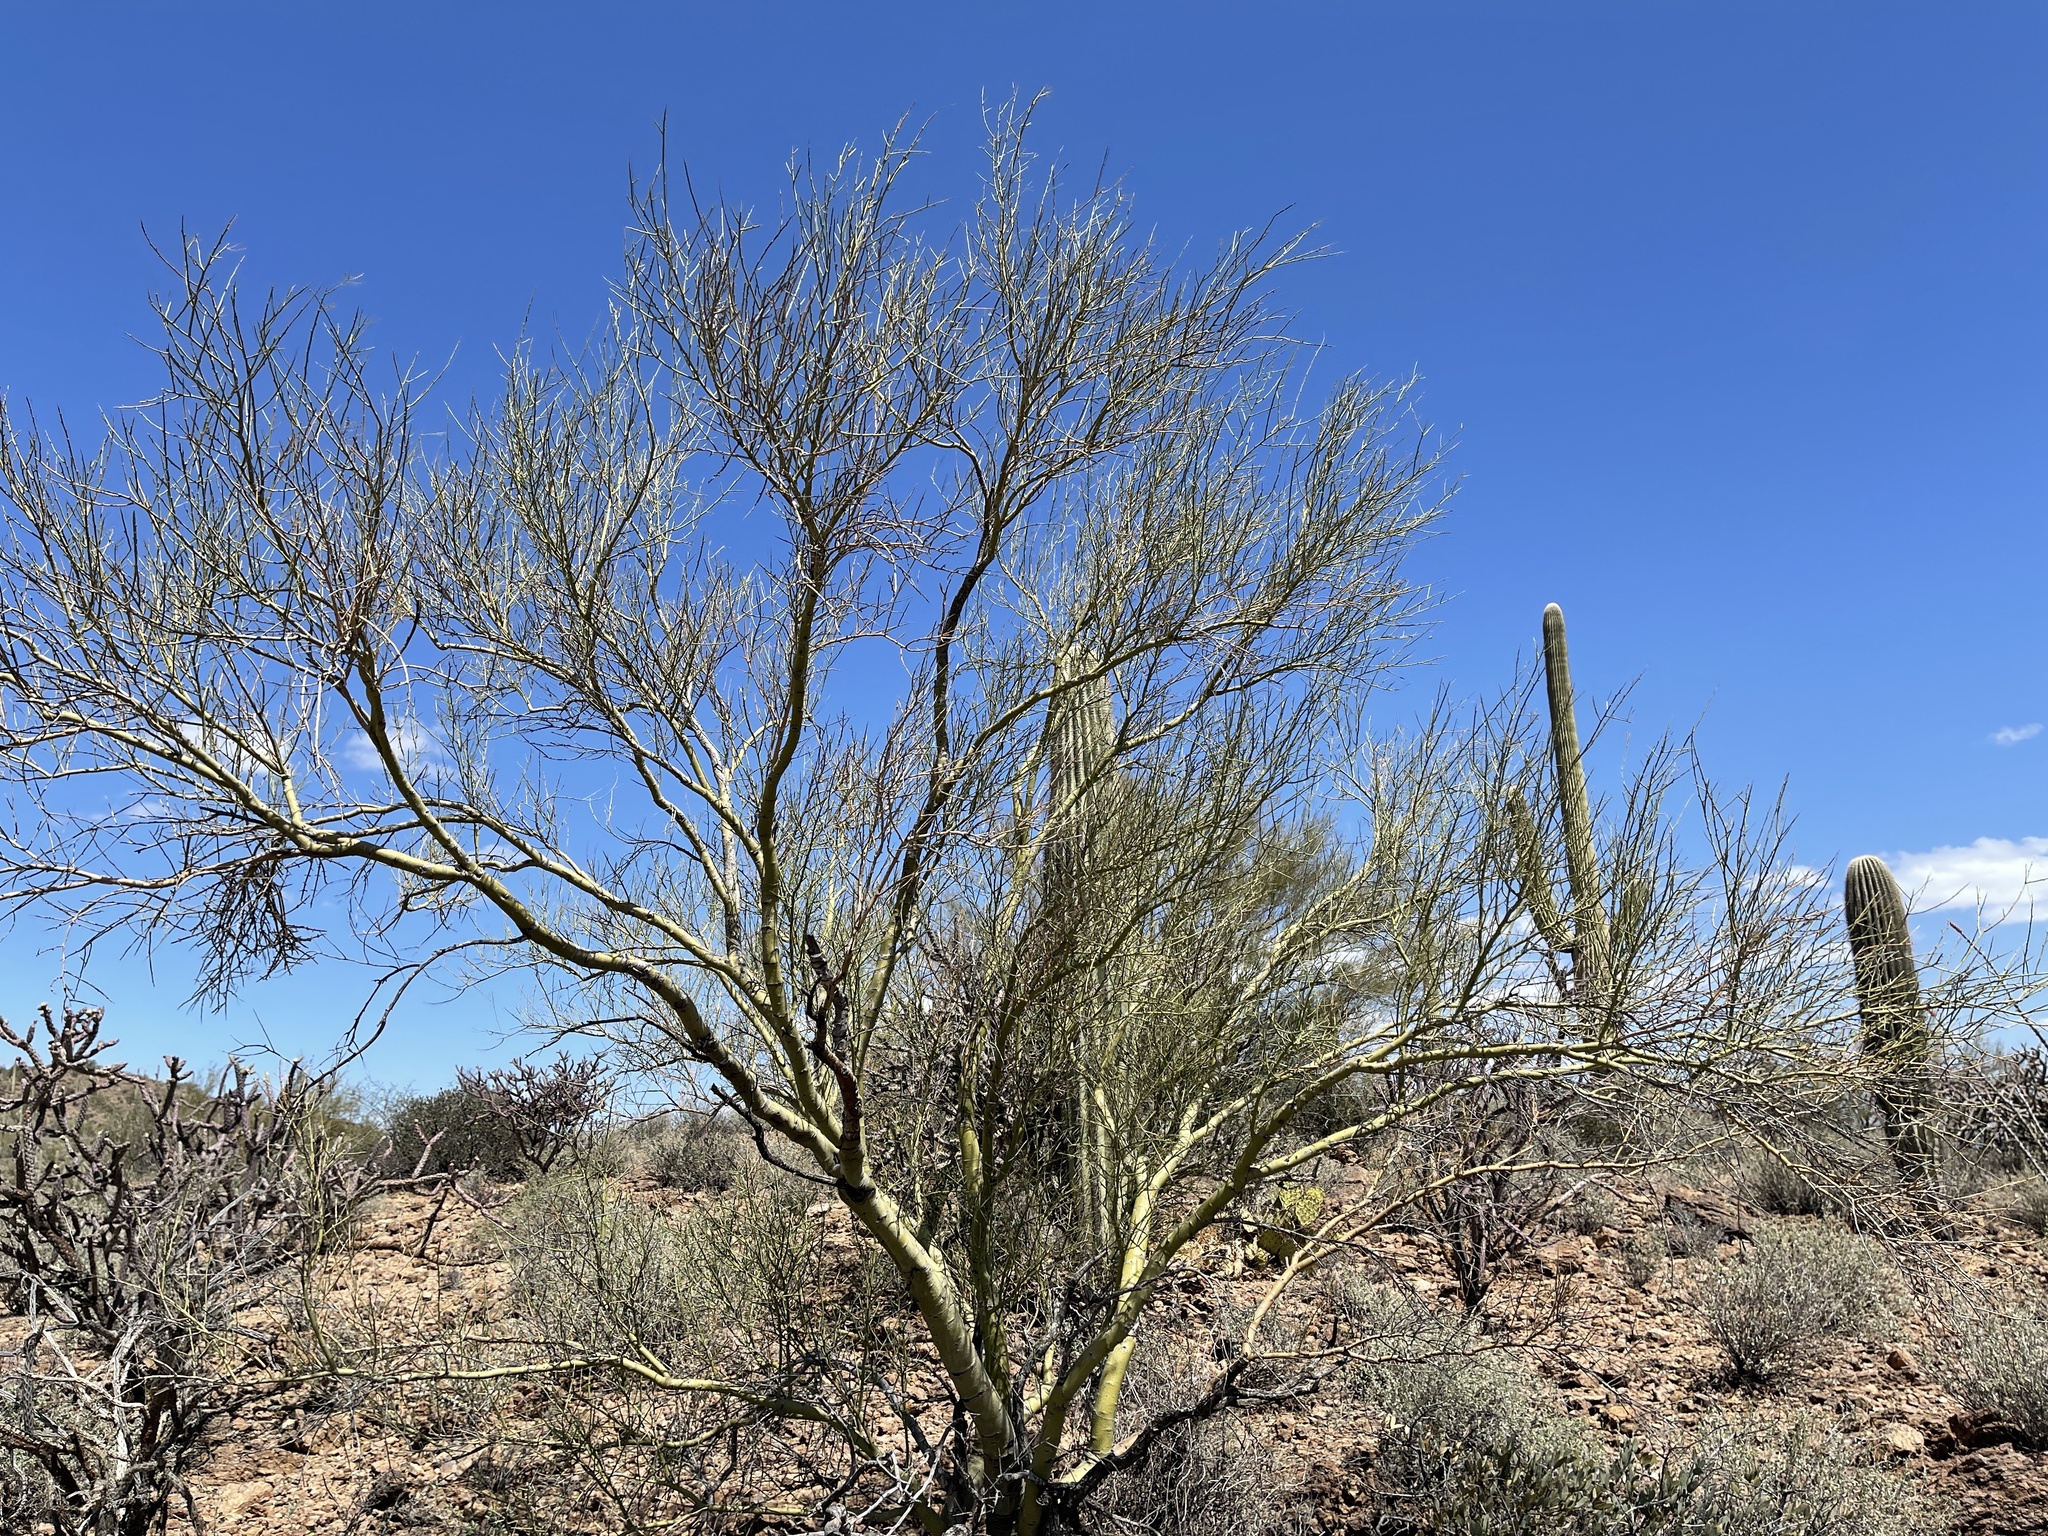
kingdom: Plantae
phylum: Tracheophyta
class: Magnoliopsida
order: Fabales
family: Fabaceae
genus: Parkinsonia
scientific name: Parkinsonia microphylla
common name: Yellow paloverde
